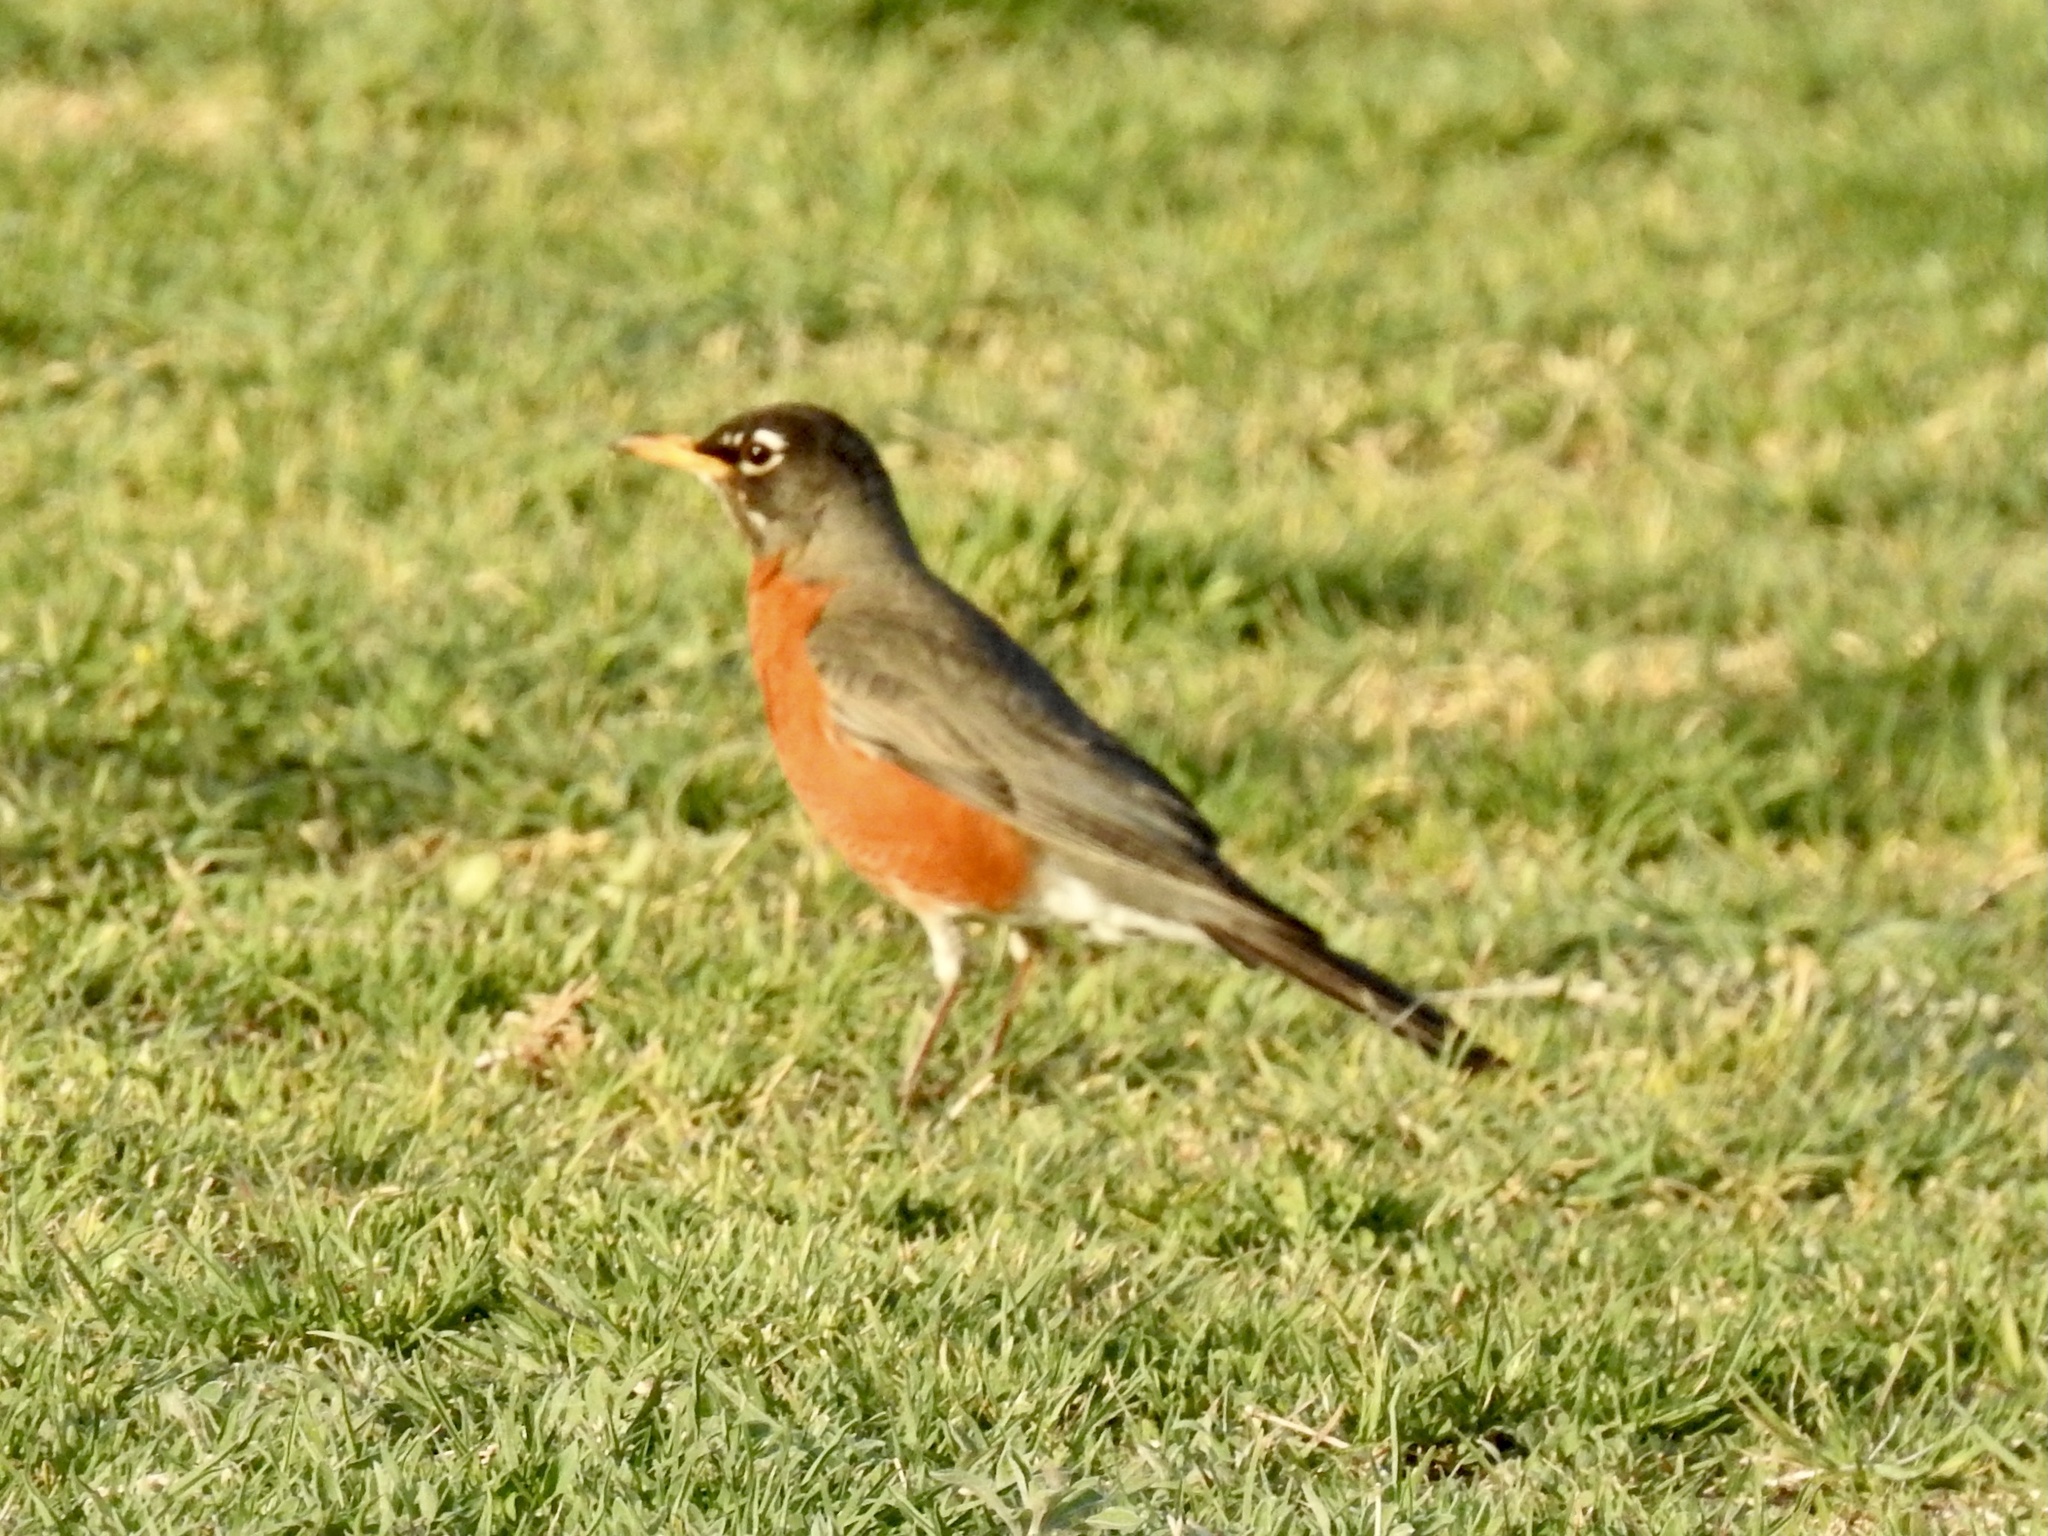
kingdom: Animalia
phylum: Chordata
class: Aves
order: Passeriformes
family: Turdidae
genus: Turdus
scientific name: Turdus migratorius
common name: American robin
